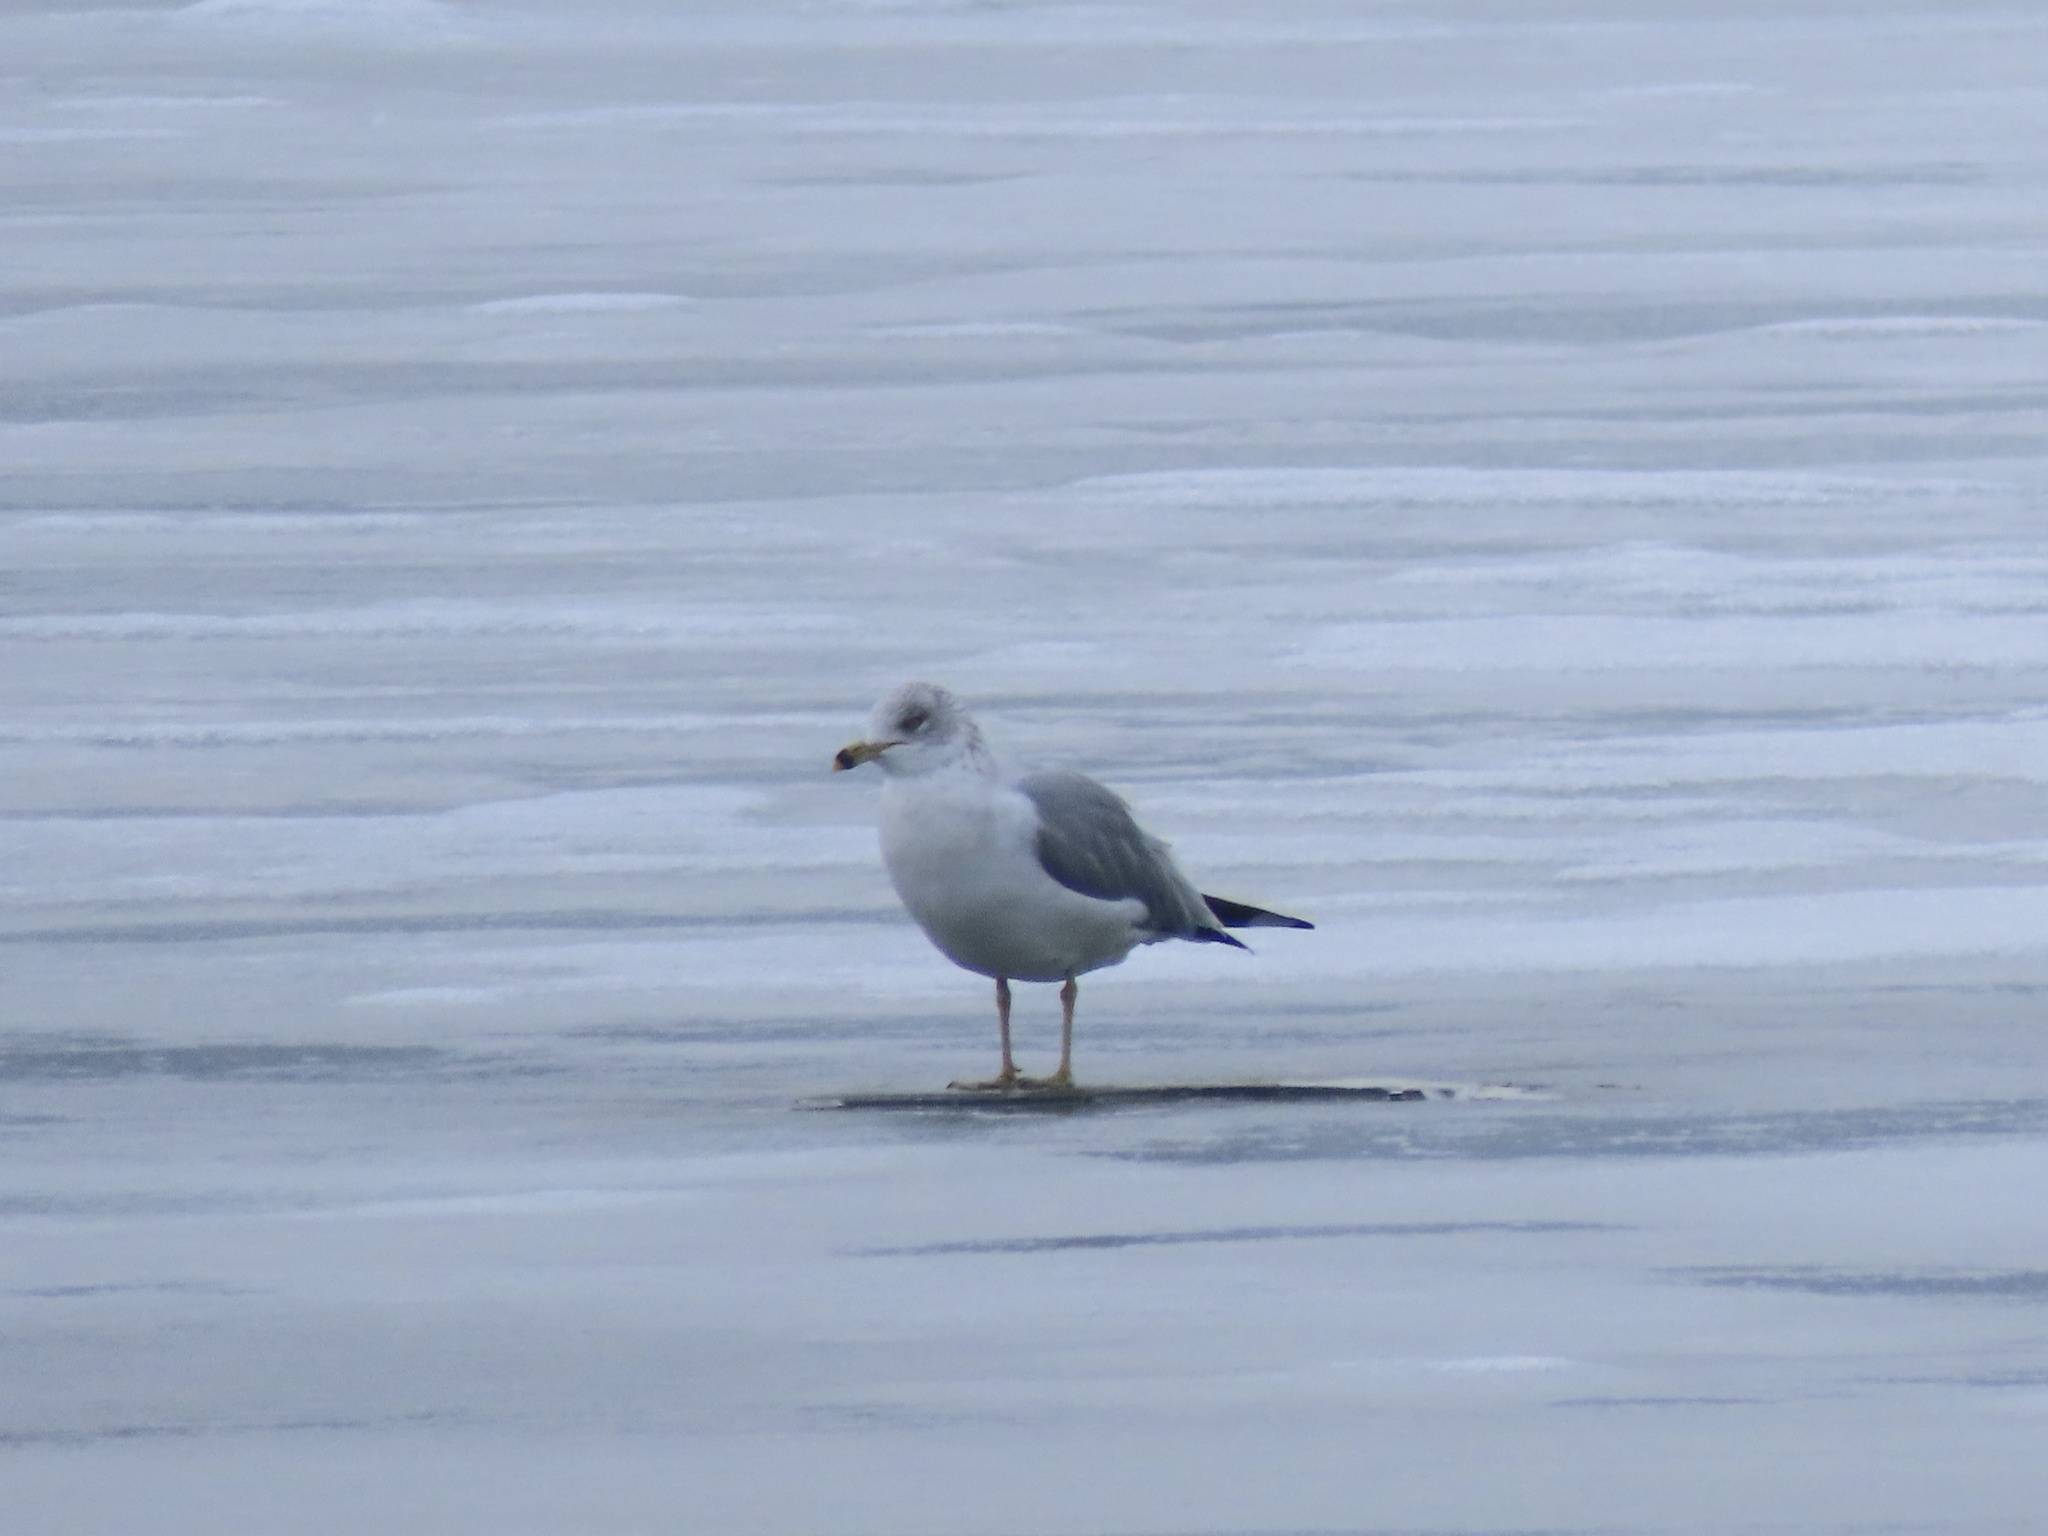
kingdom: Animalia
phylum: Chordata
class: Aves
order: Charadriiformes
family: Laridae
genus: Larus
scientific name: Larus delawarensis
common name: Ring-billed gull
